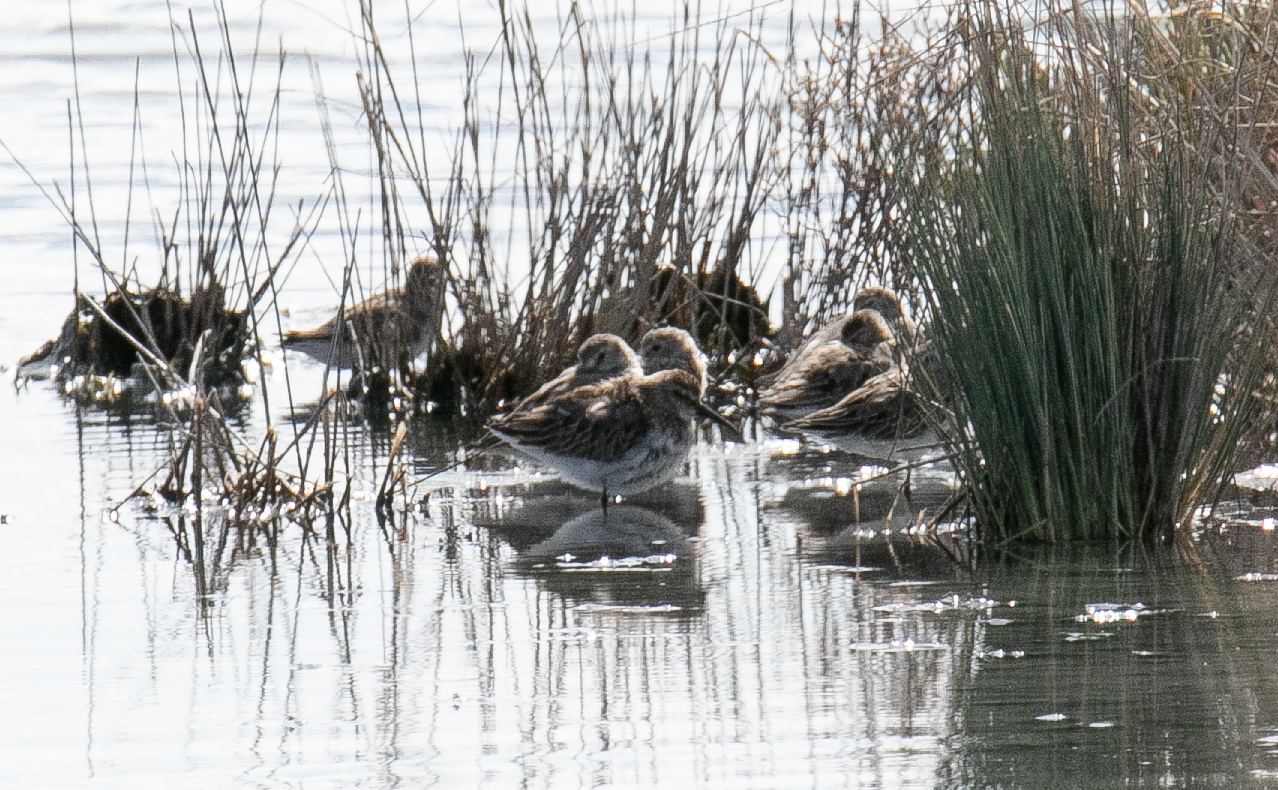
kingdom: Animalia
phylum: Chordata
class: Aves
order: Charadriiformes
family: Scolopacidae
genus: Calidris
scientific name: Calidris alpina
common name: Dunlin
